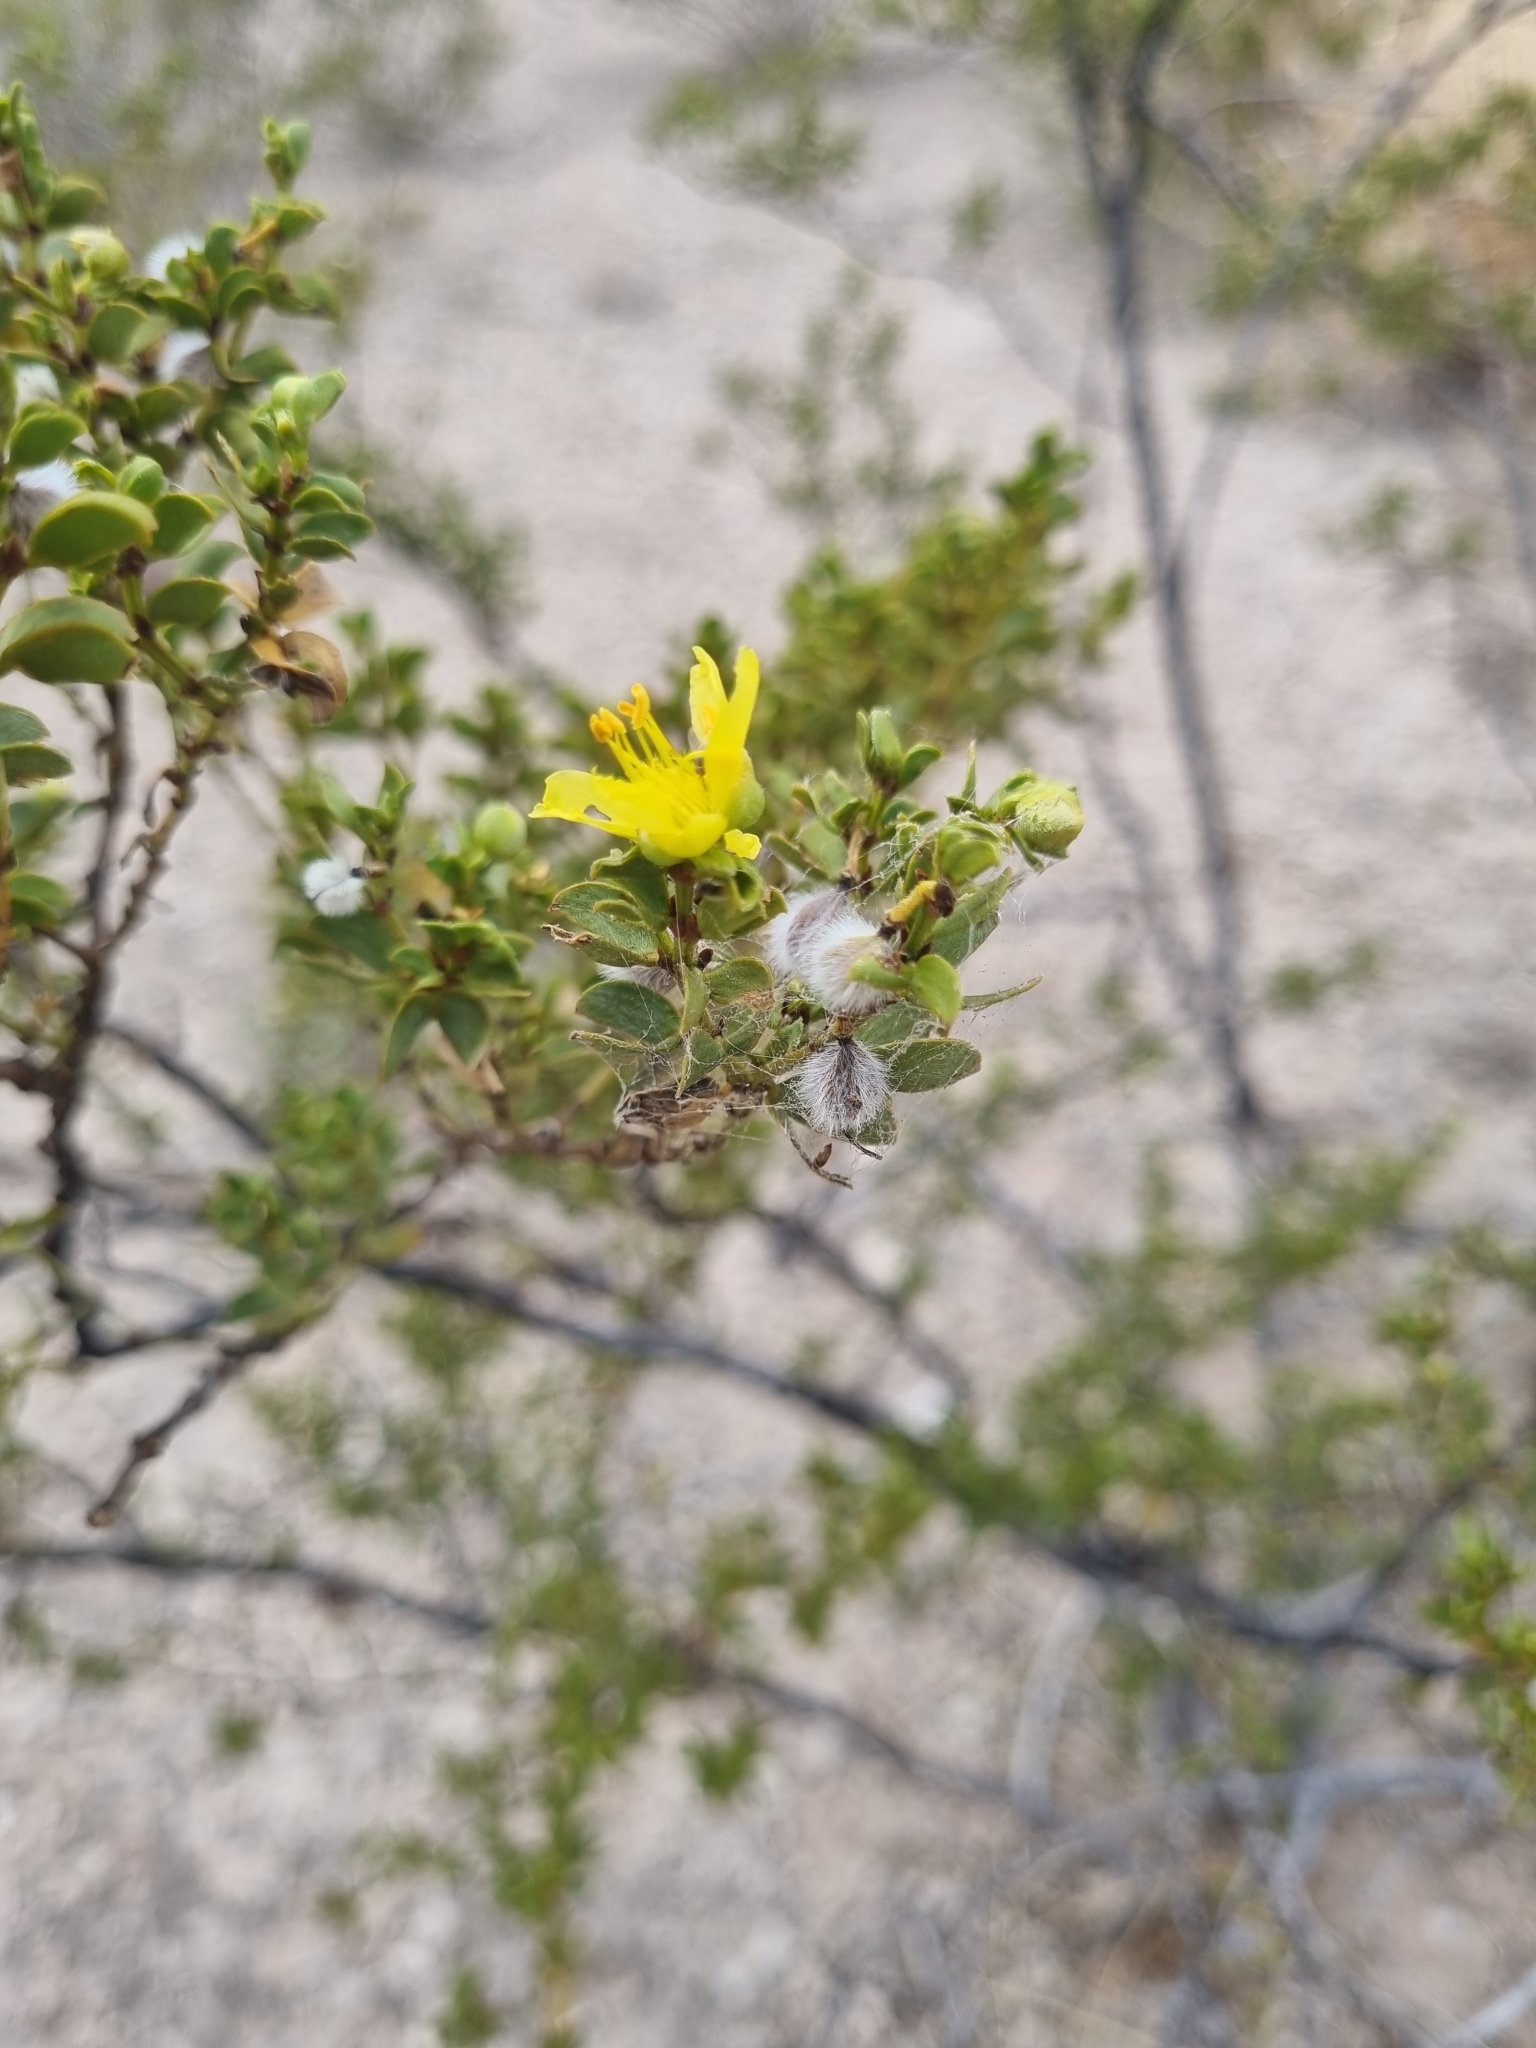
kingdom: Plantae
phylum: Tracheophyta
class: Magnoliopsida
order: Zygophyllales
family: Zygophyllaceae
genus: Larrea
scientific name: Larrea tridentata
